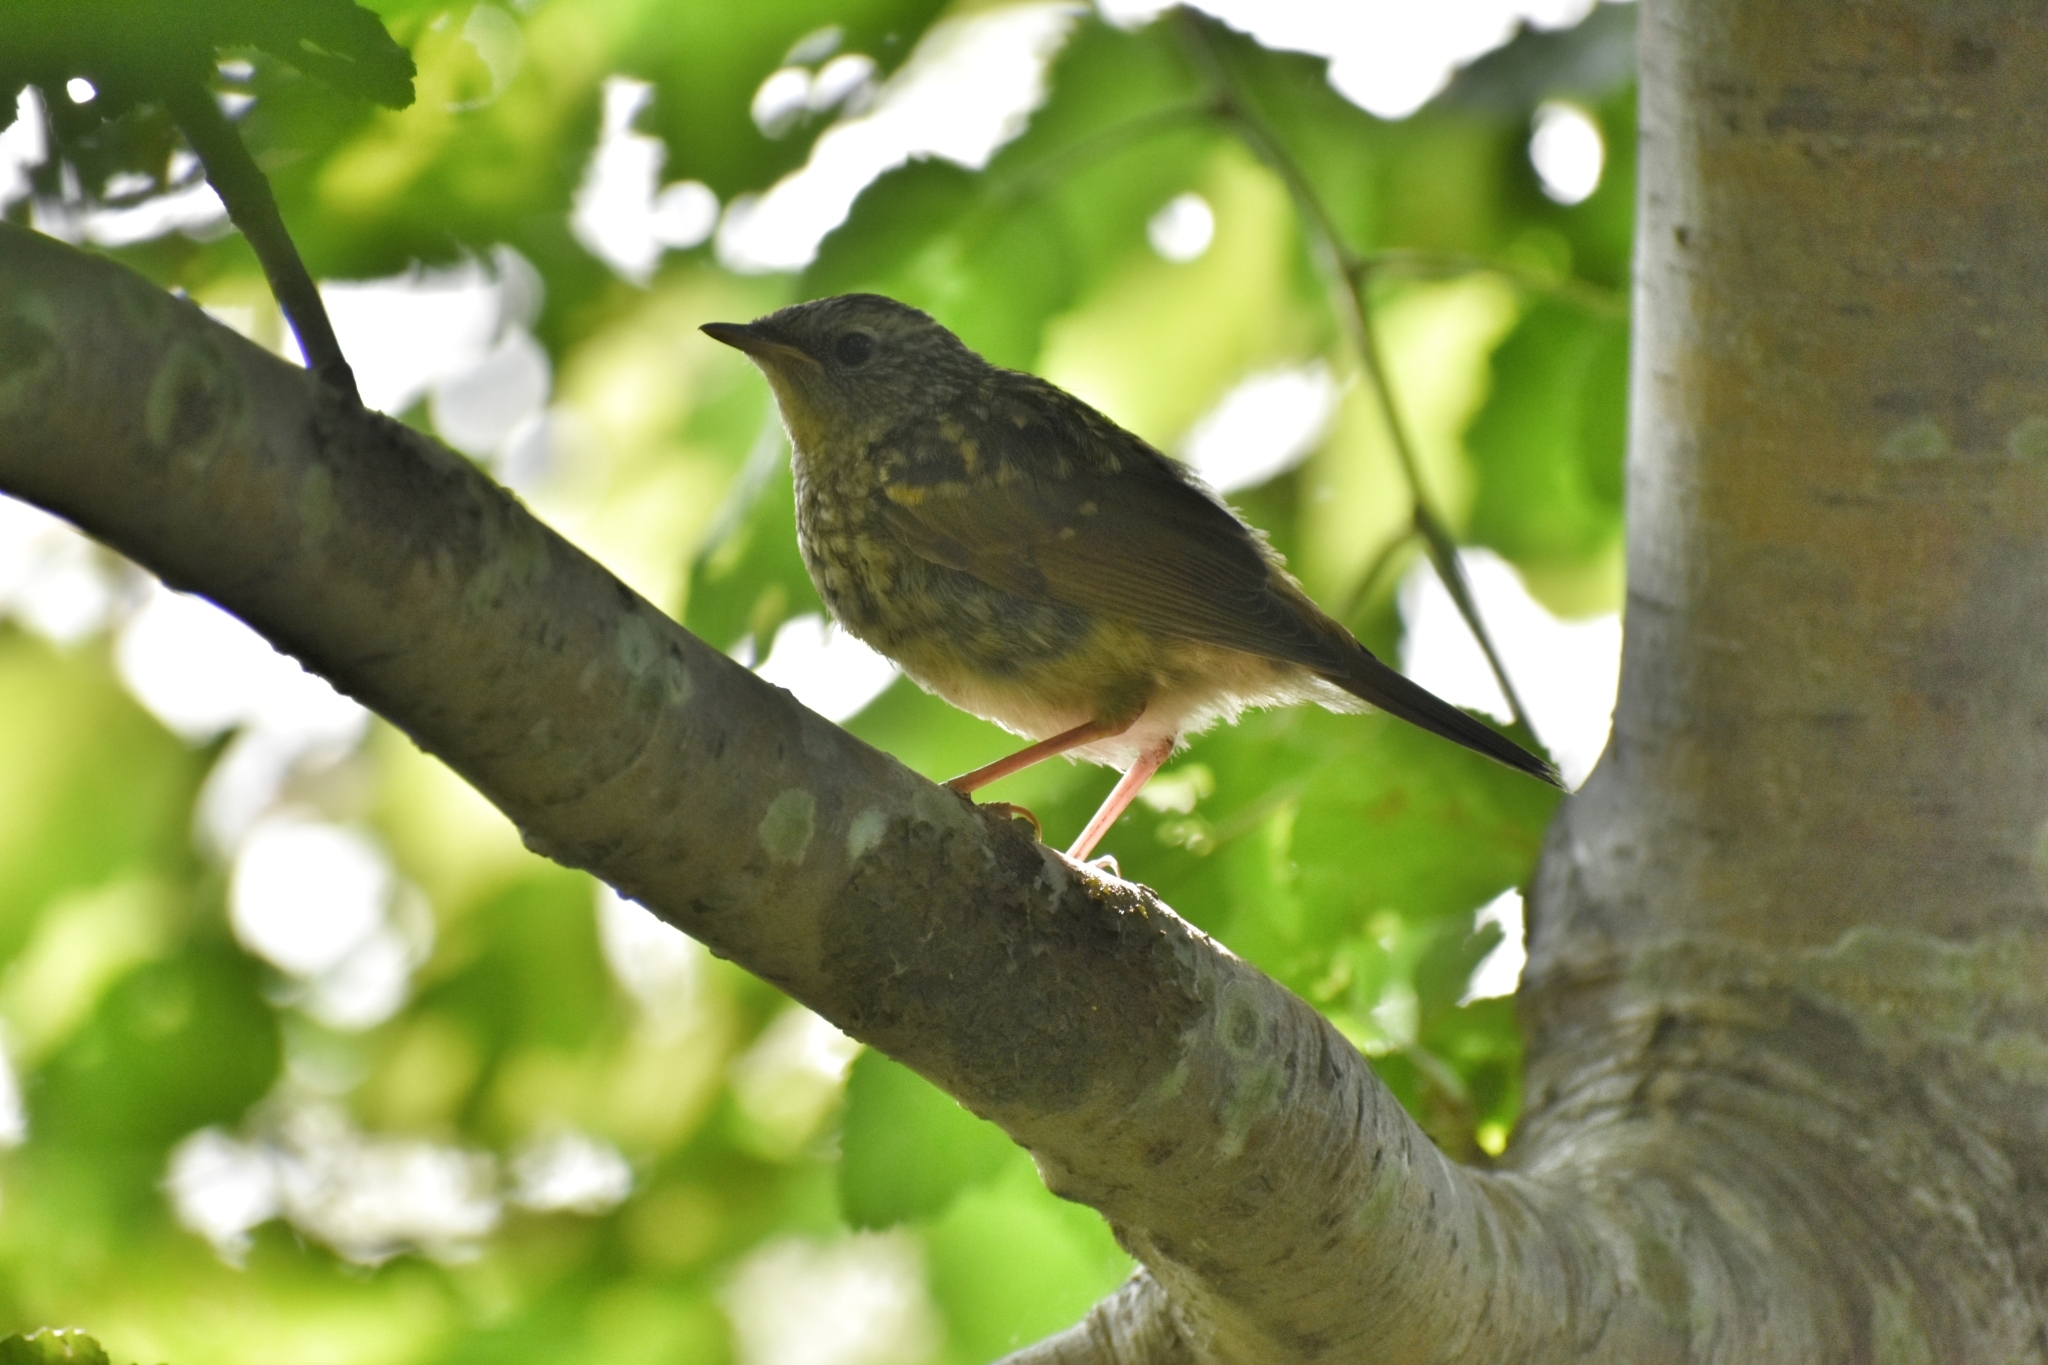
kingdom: Animalia
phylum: Chordata
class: Aves
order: Passeriformes
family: Muscicapidae
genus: Luscinia
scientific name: Luscinia calliope
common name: Siberian rubythroat
